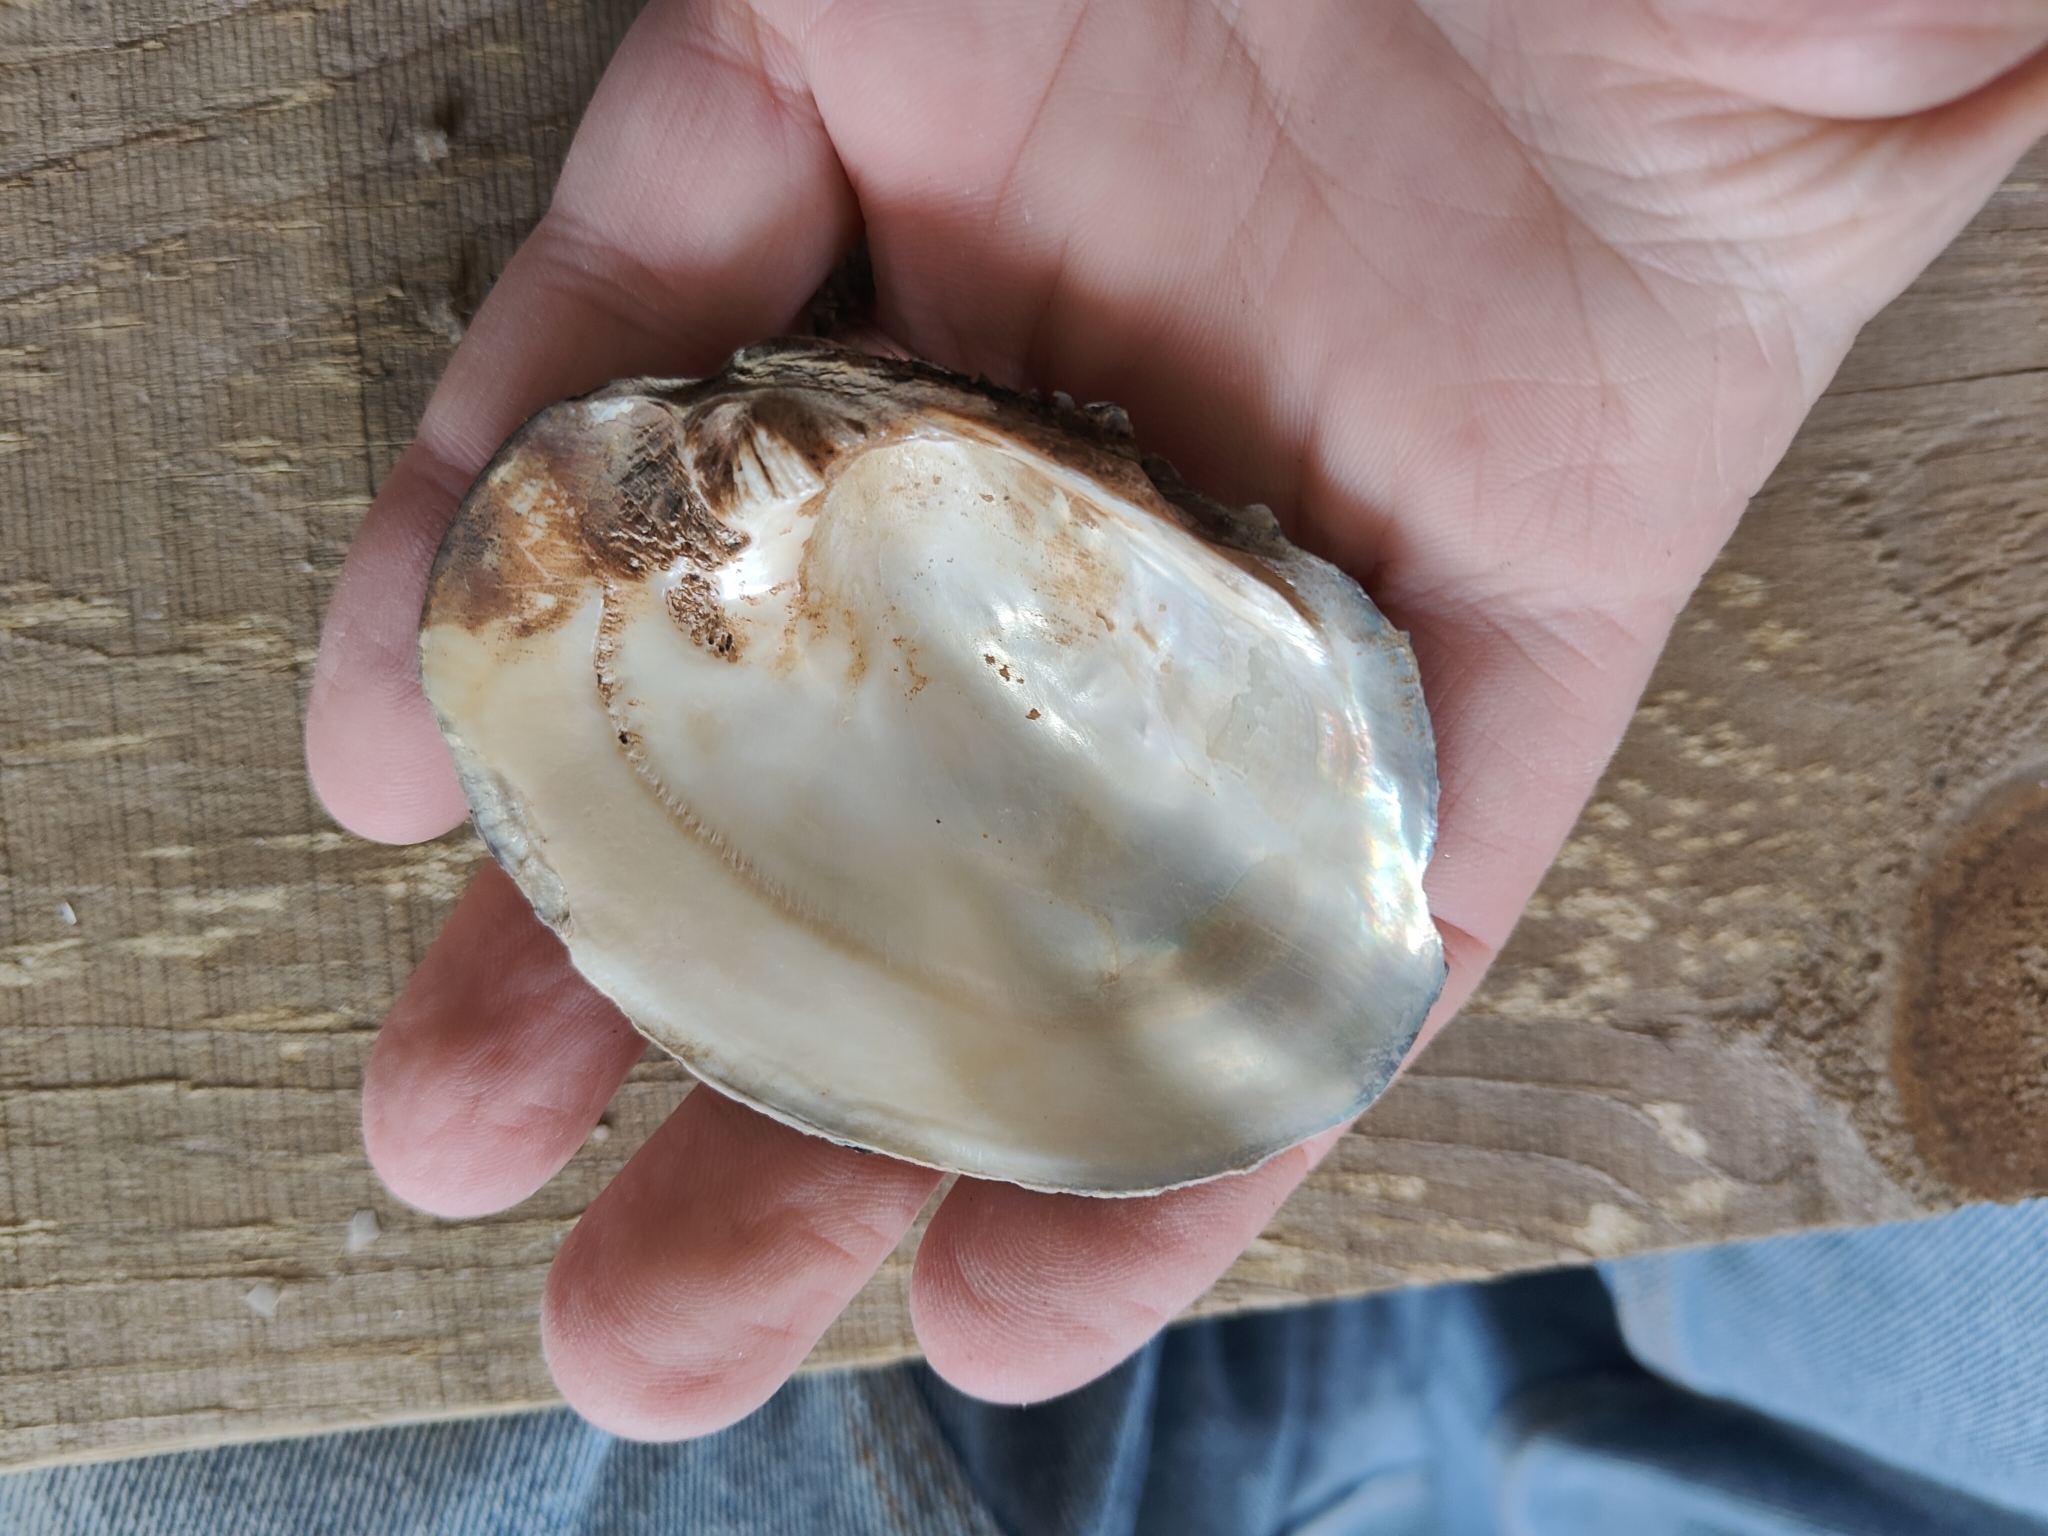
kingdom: Animalia
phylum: Mollusca
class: Bivalvia
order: Unionida
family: Unionidae
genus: Amblema
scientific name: Amblema plicata
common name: Threeridge
